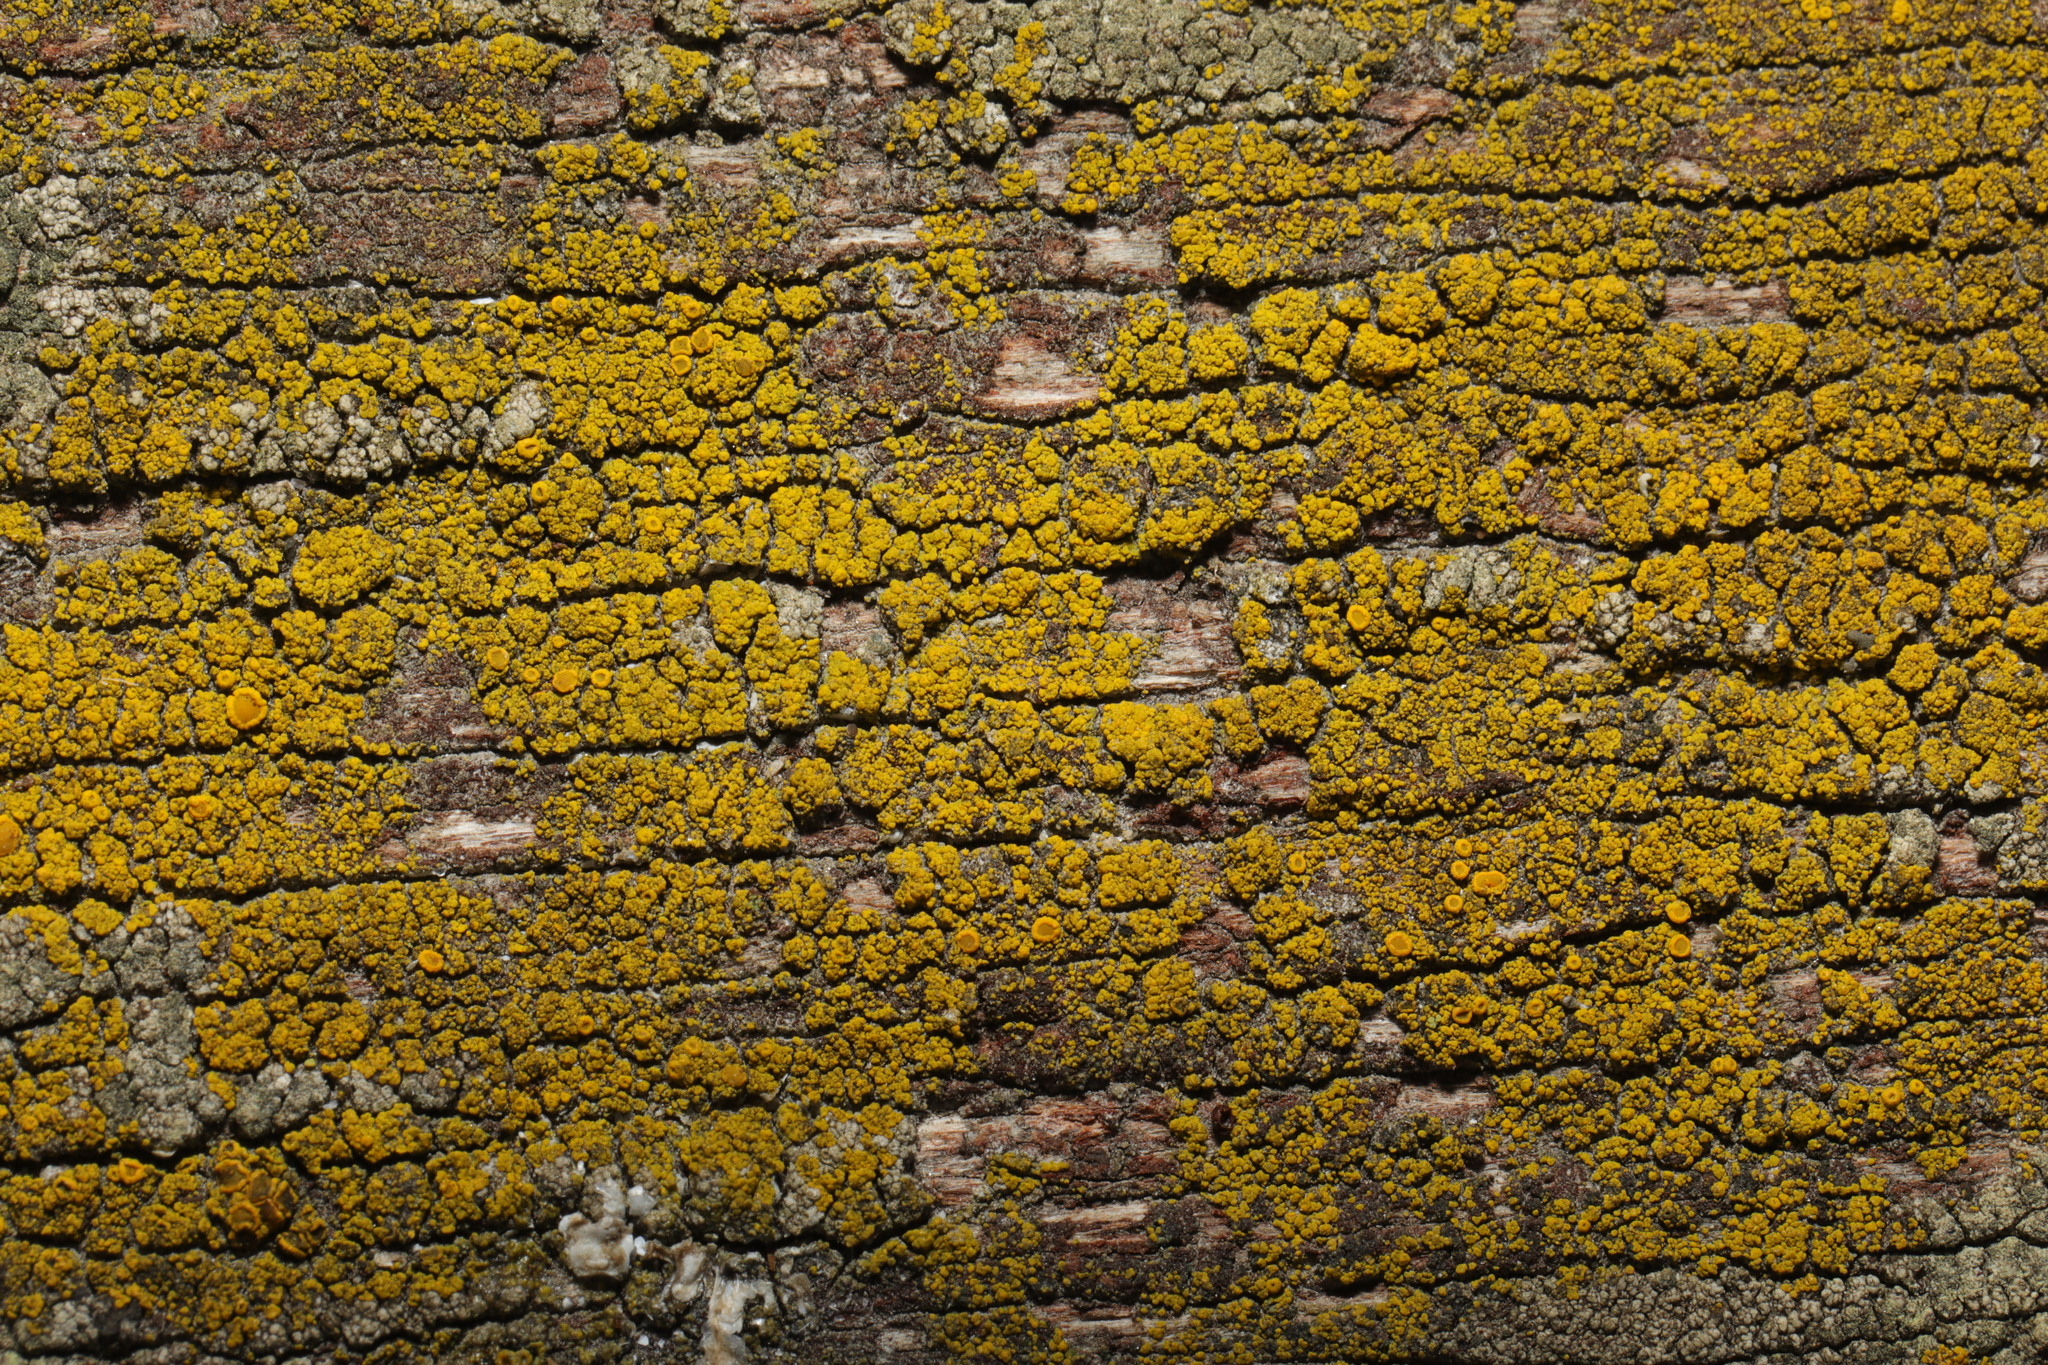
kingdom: Fungi
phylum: Ascomycota
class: Candelariomycetes
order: Candelariales
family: Candelariaceae
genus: Candelariella
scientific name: Candelariella vitellina
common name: Common goldspeck
